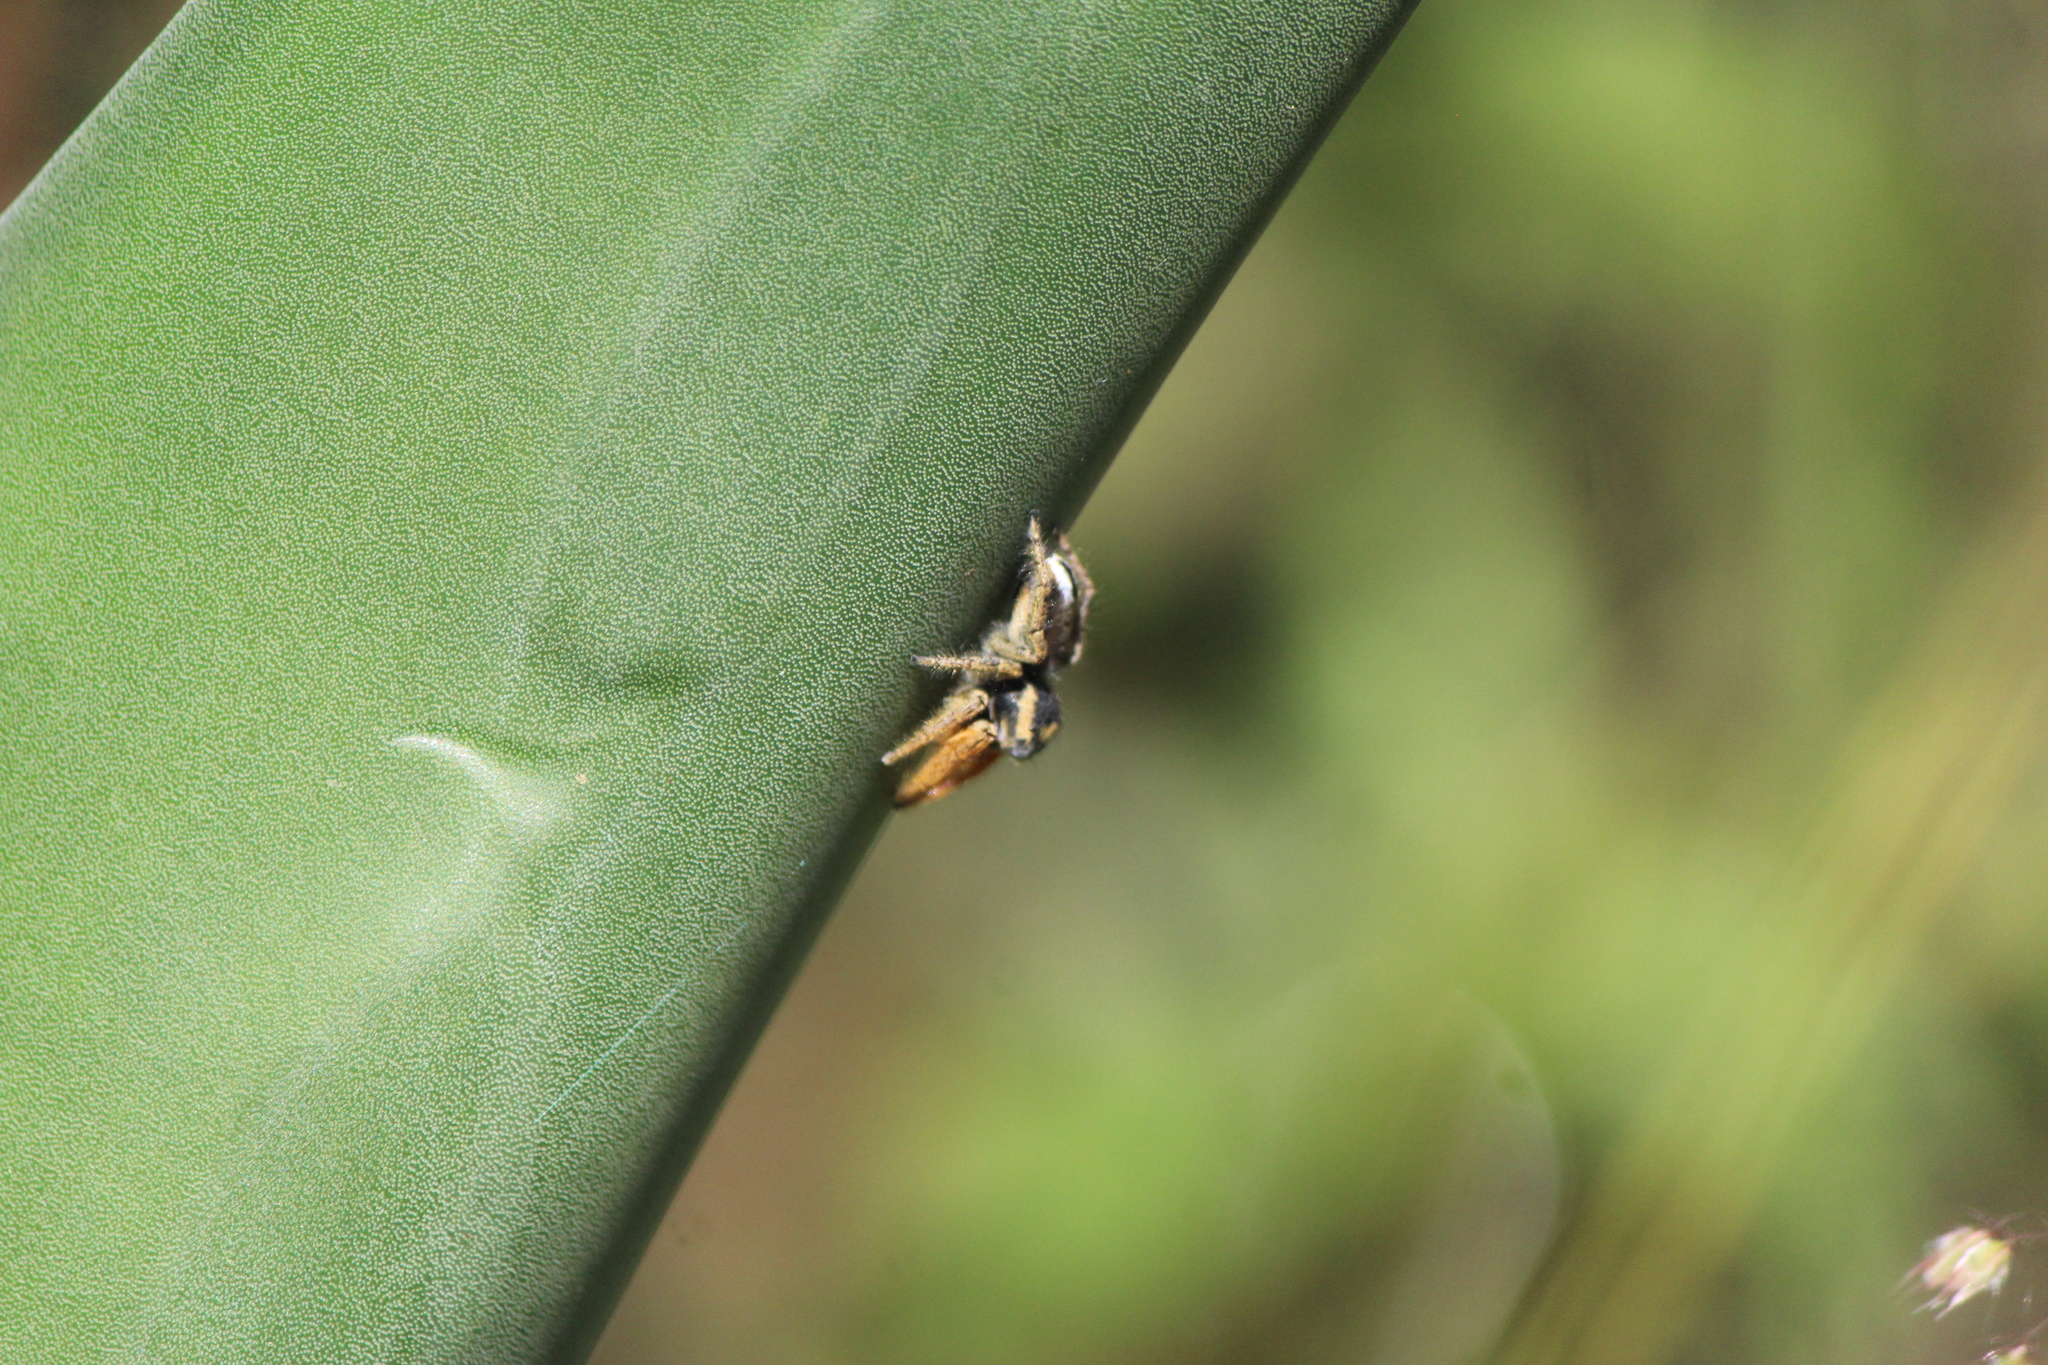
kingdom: Animalia
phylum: Arthropoda
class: Arachnida
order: Araneae
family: Salticidae
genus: Phidippus
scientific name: Phidippus arizonensis
